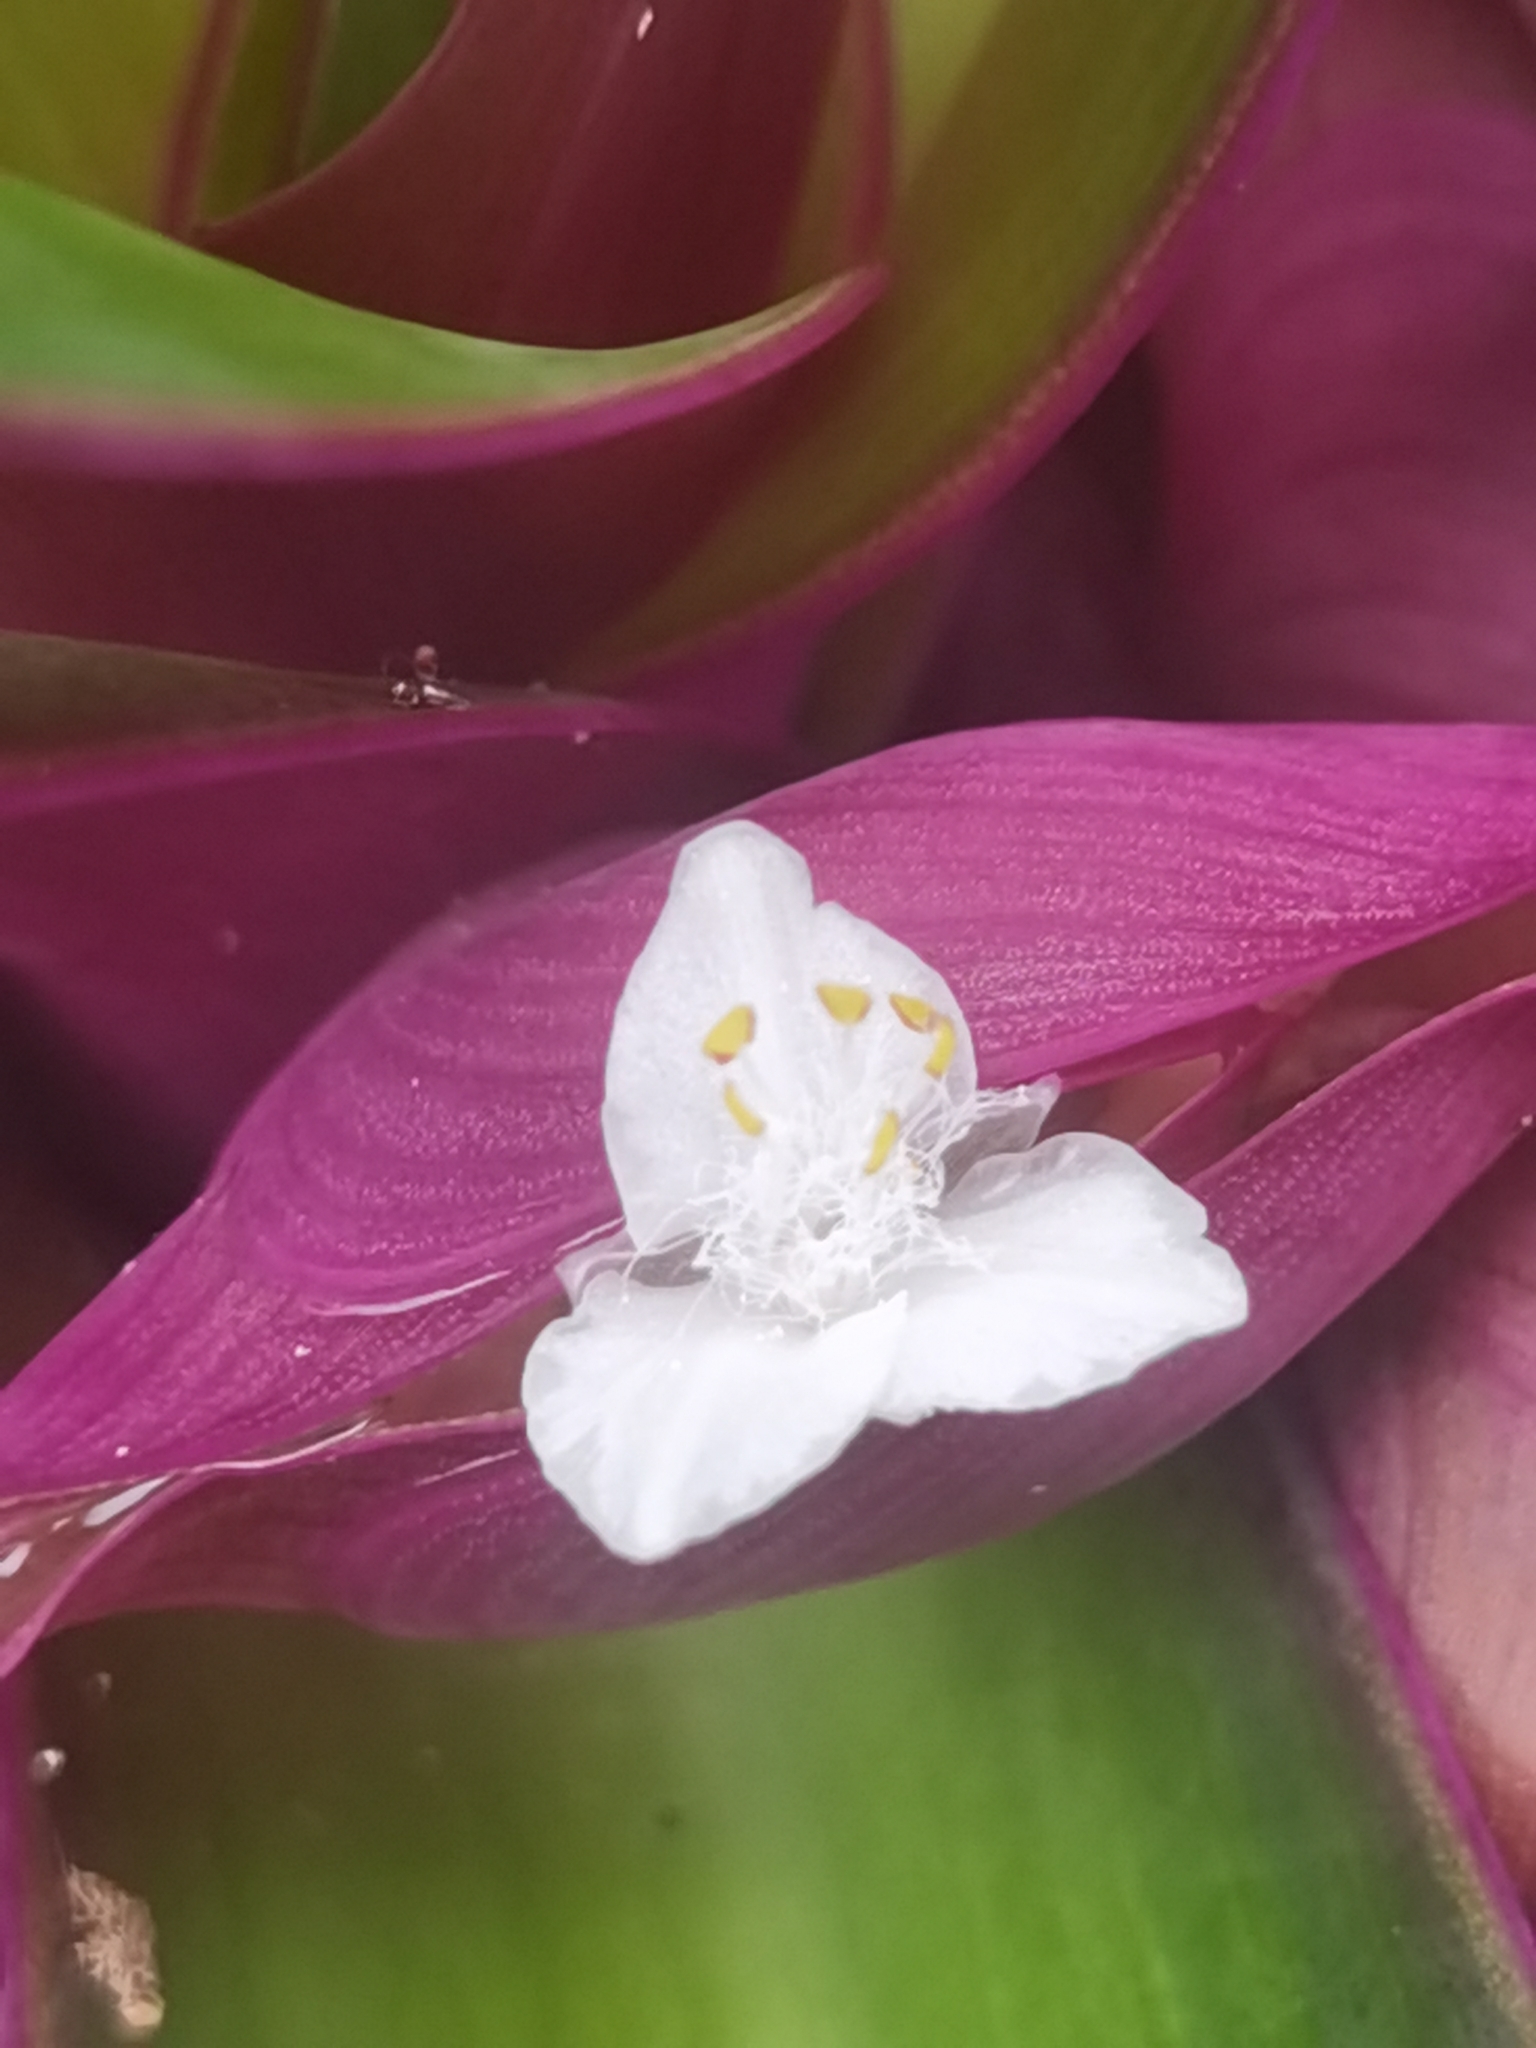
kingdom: Plantae
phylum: Tracheophyta
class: Liliopsida
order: Commelinales
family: Commelinaceae
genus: Tradescantia
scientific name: Tradescantia spathacea
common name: Boatlily
